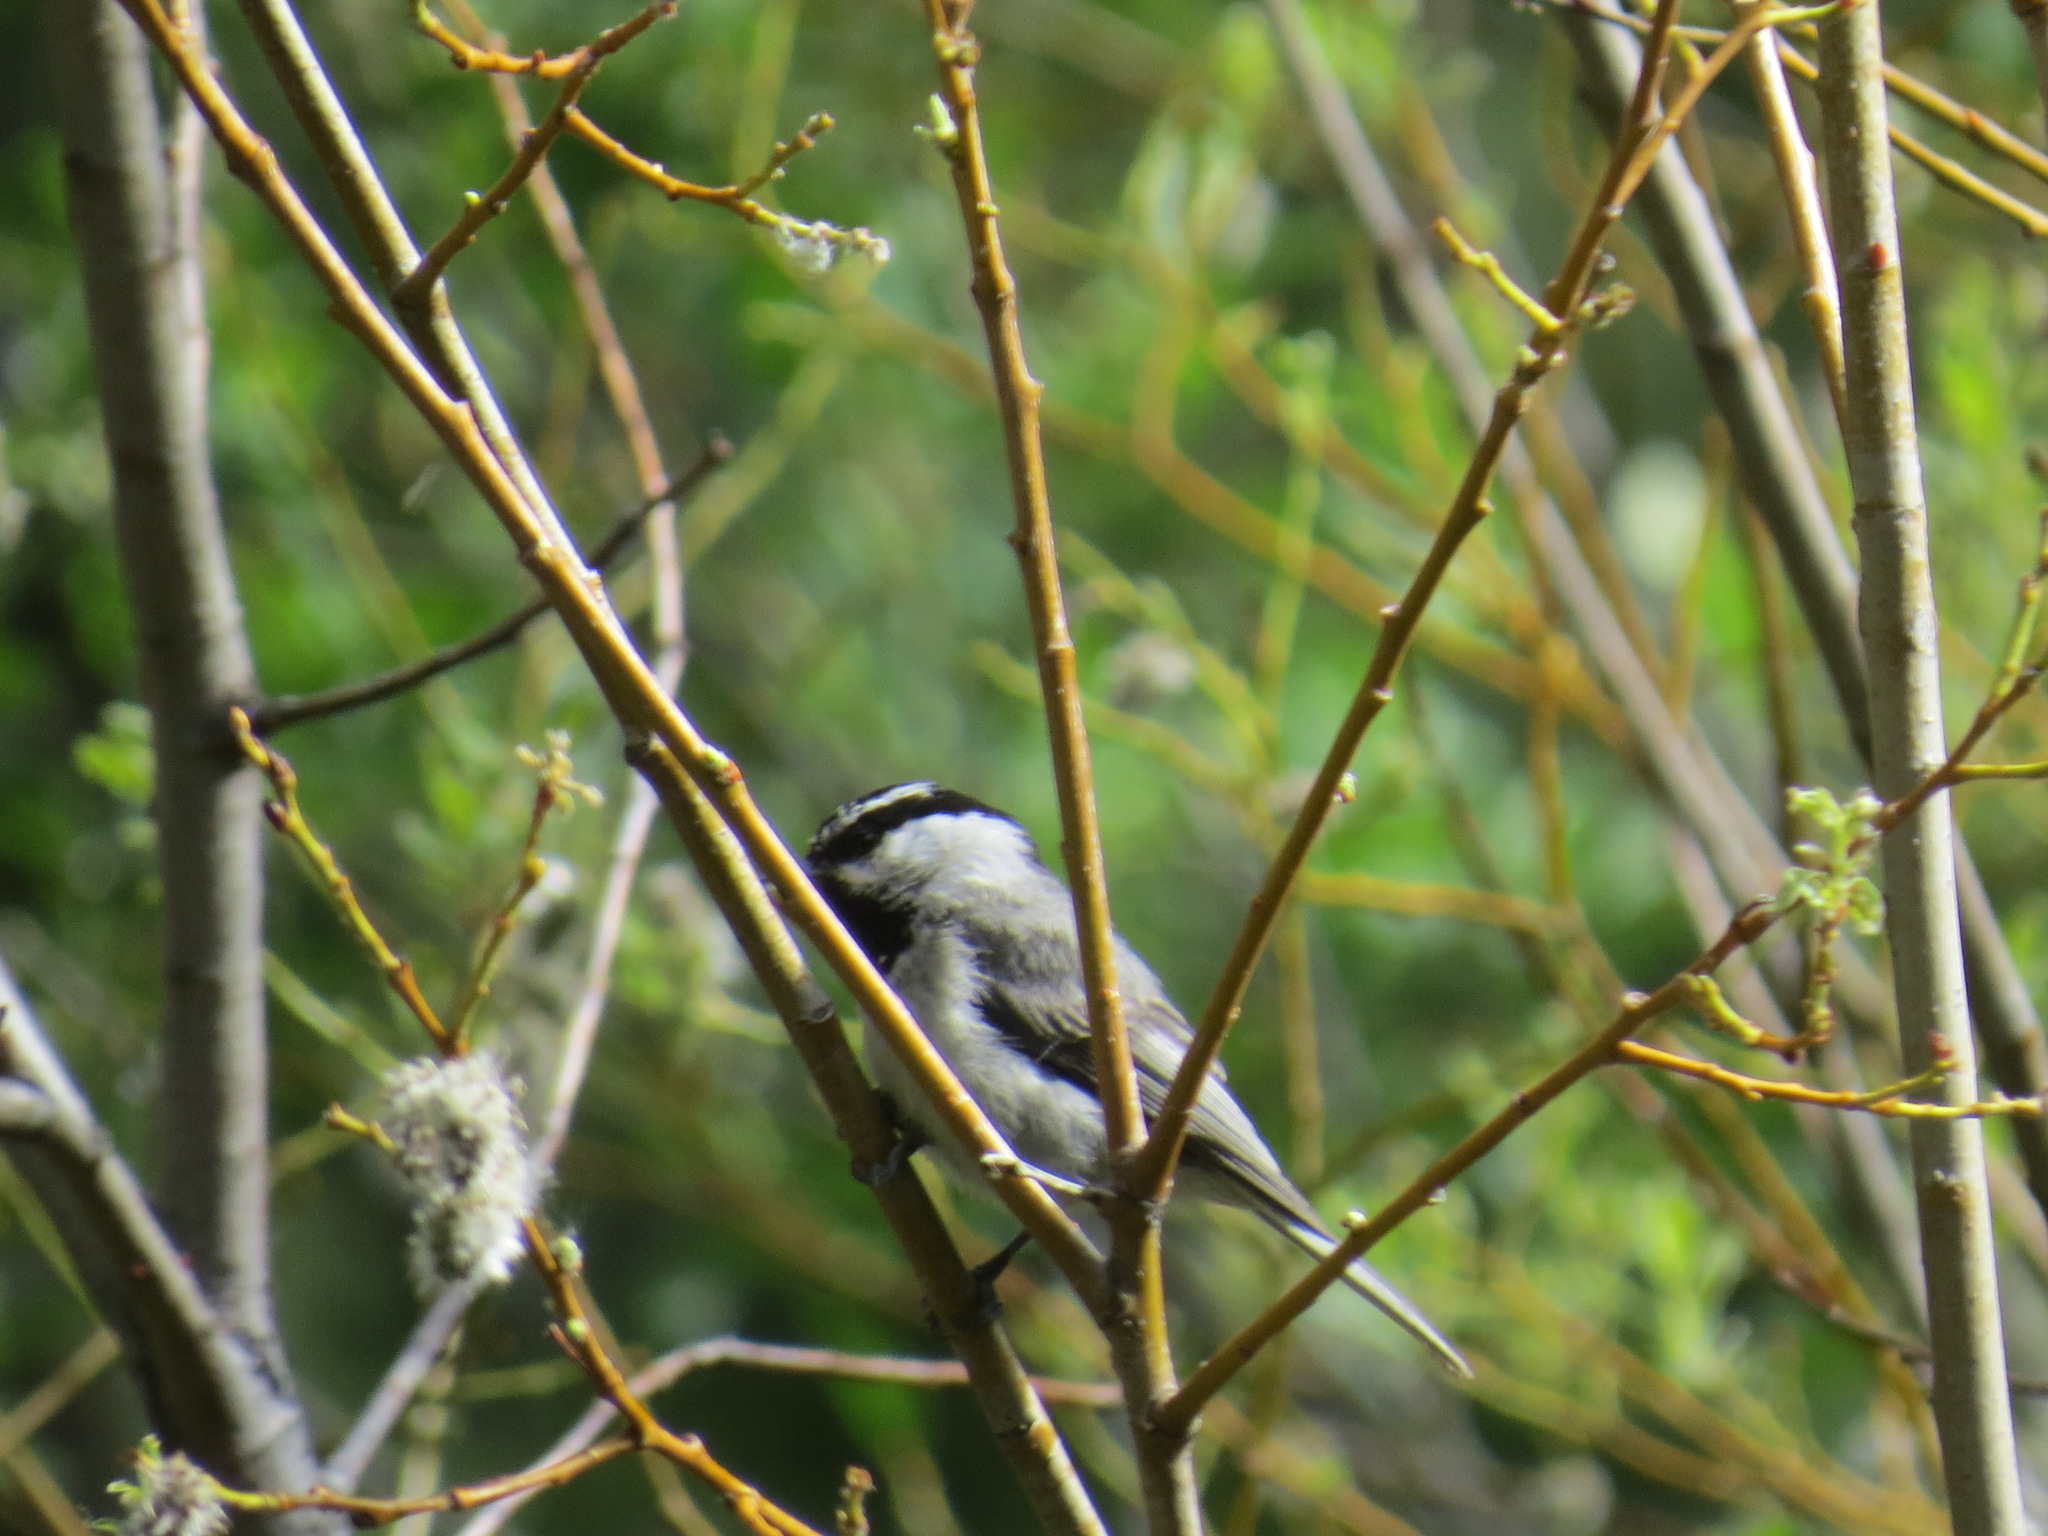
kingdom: Animalia
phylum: Chordata
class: Aves
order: Passeriformes
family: Paridae
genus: Poecile
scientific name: Poecile gambeli
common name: Mountain chickadee
